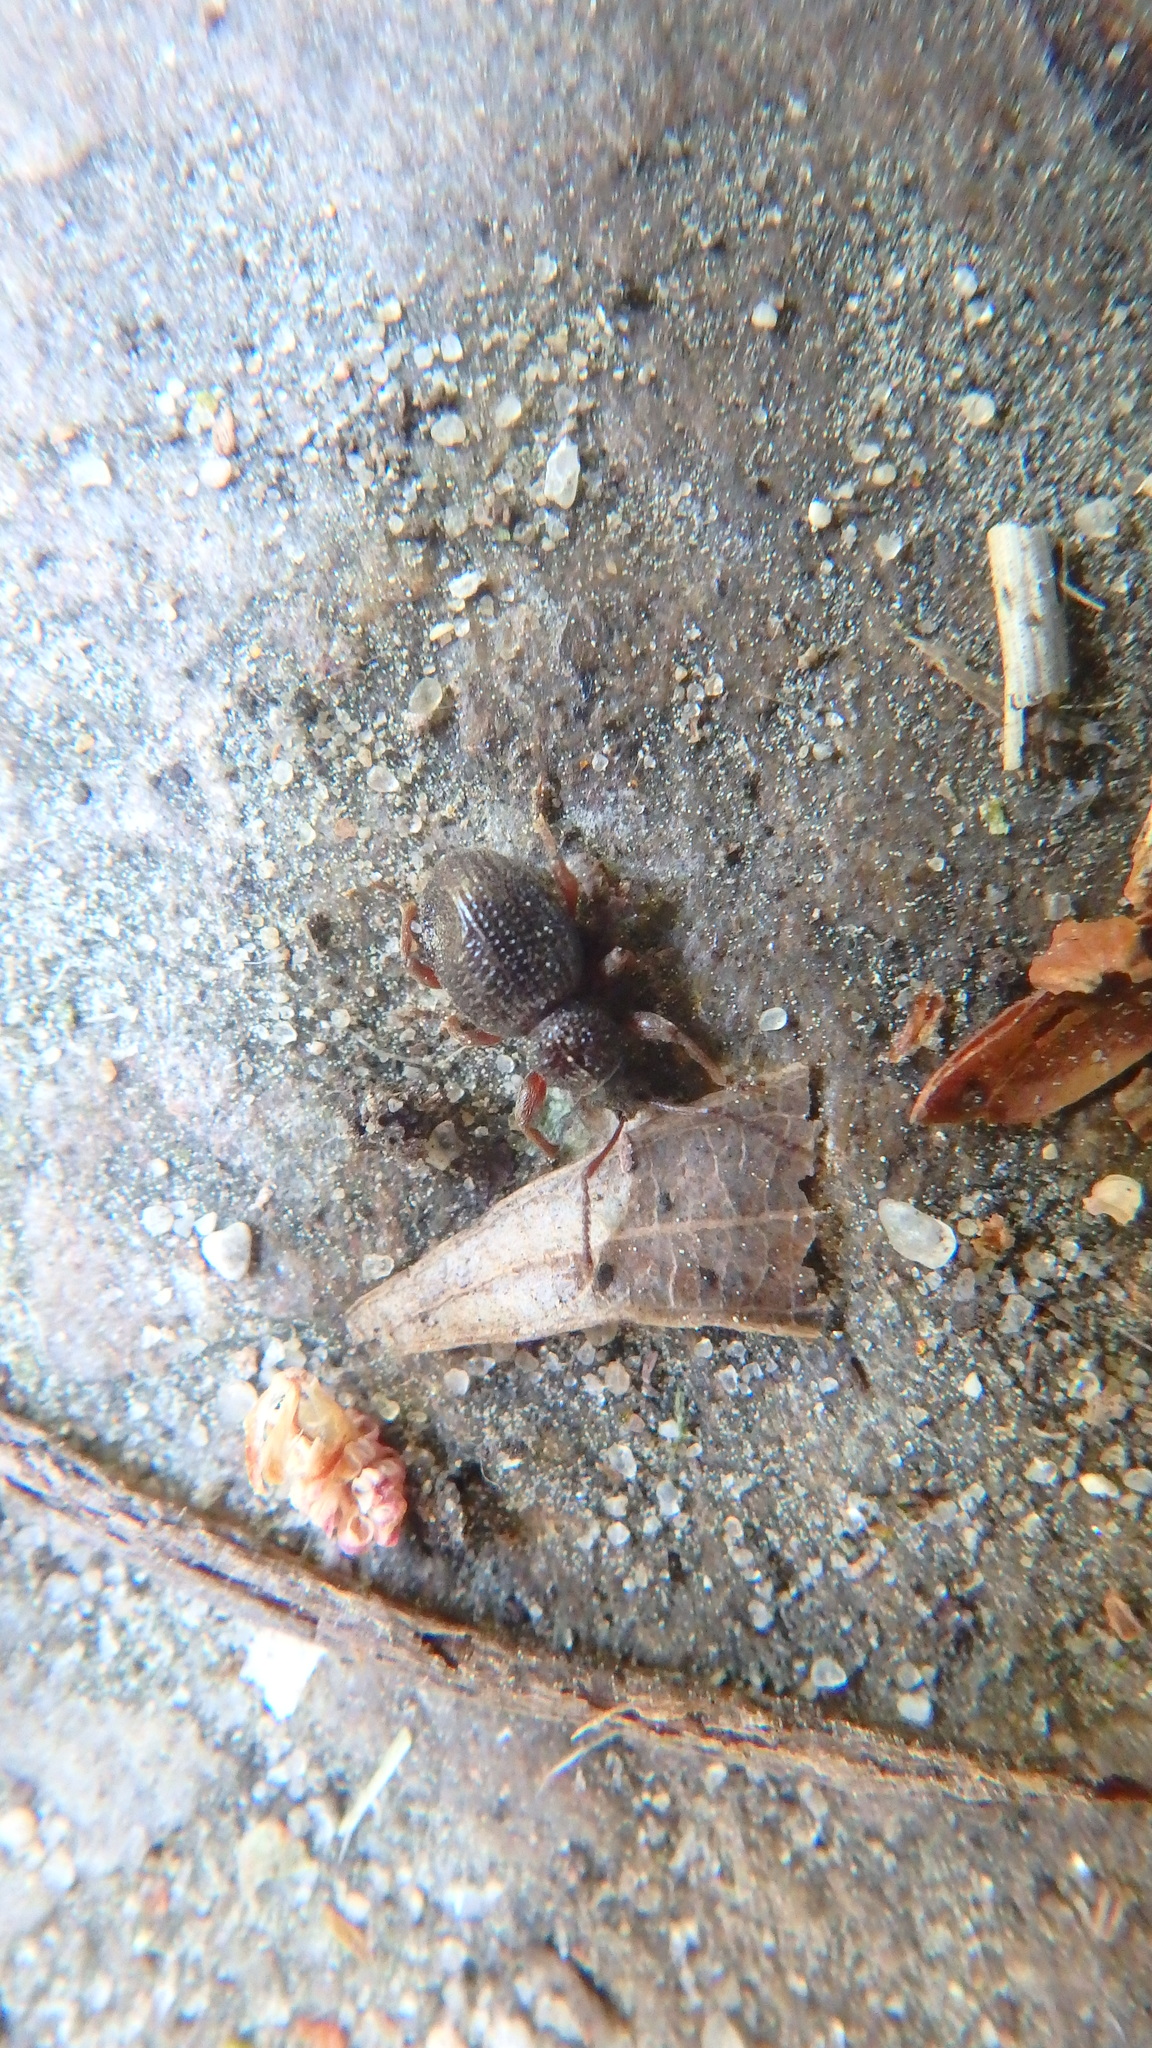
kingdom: Animalia
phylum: Arthropoda
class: Insecta
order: Coleoptera
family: Curculionidae
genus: Otiorhynchus
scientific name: Otiorhynchus ovatus
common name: Strawberry root weevil
